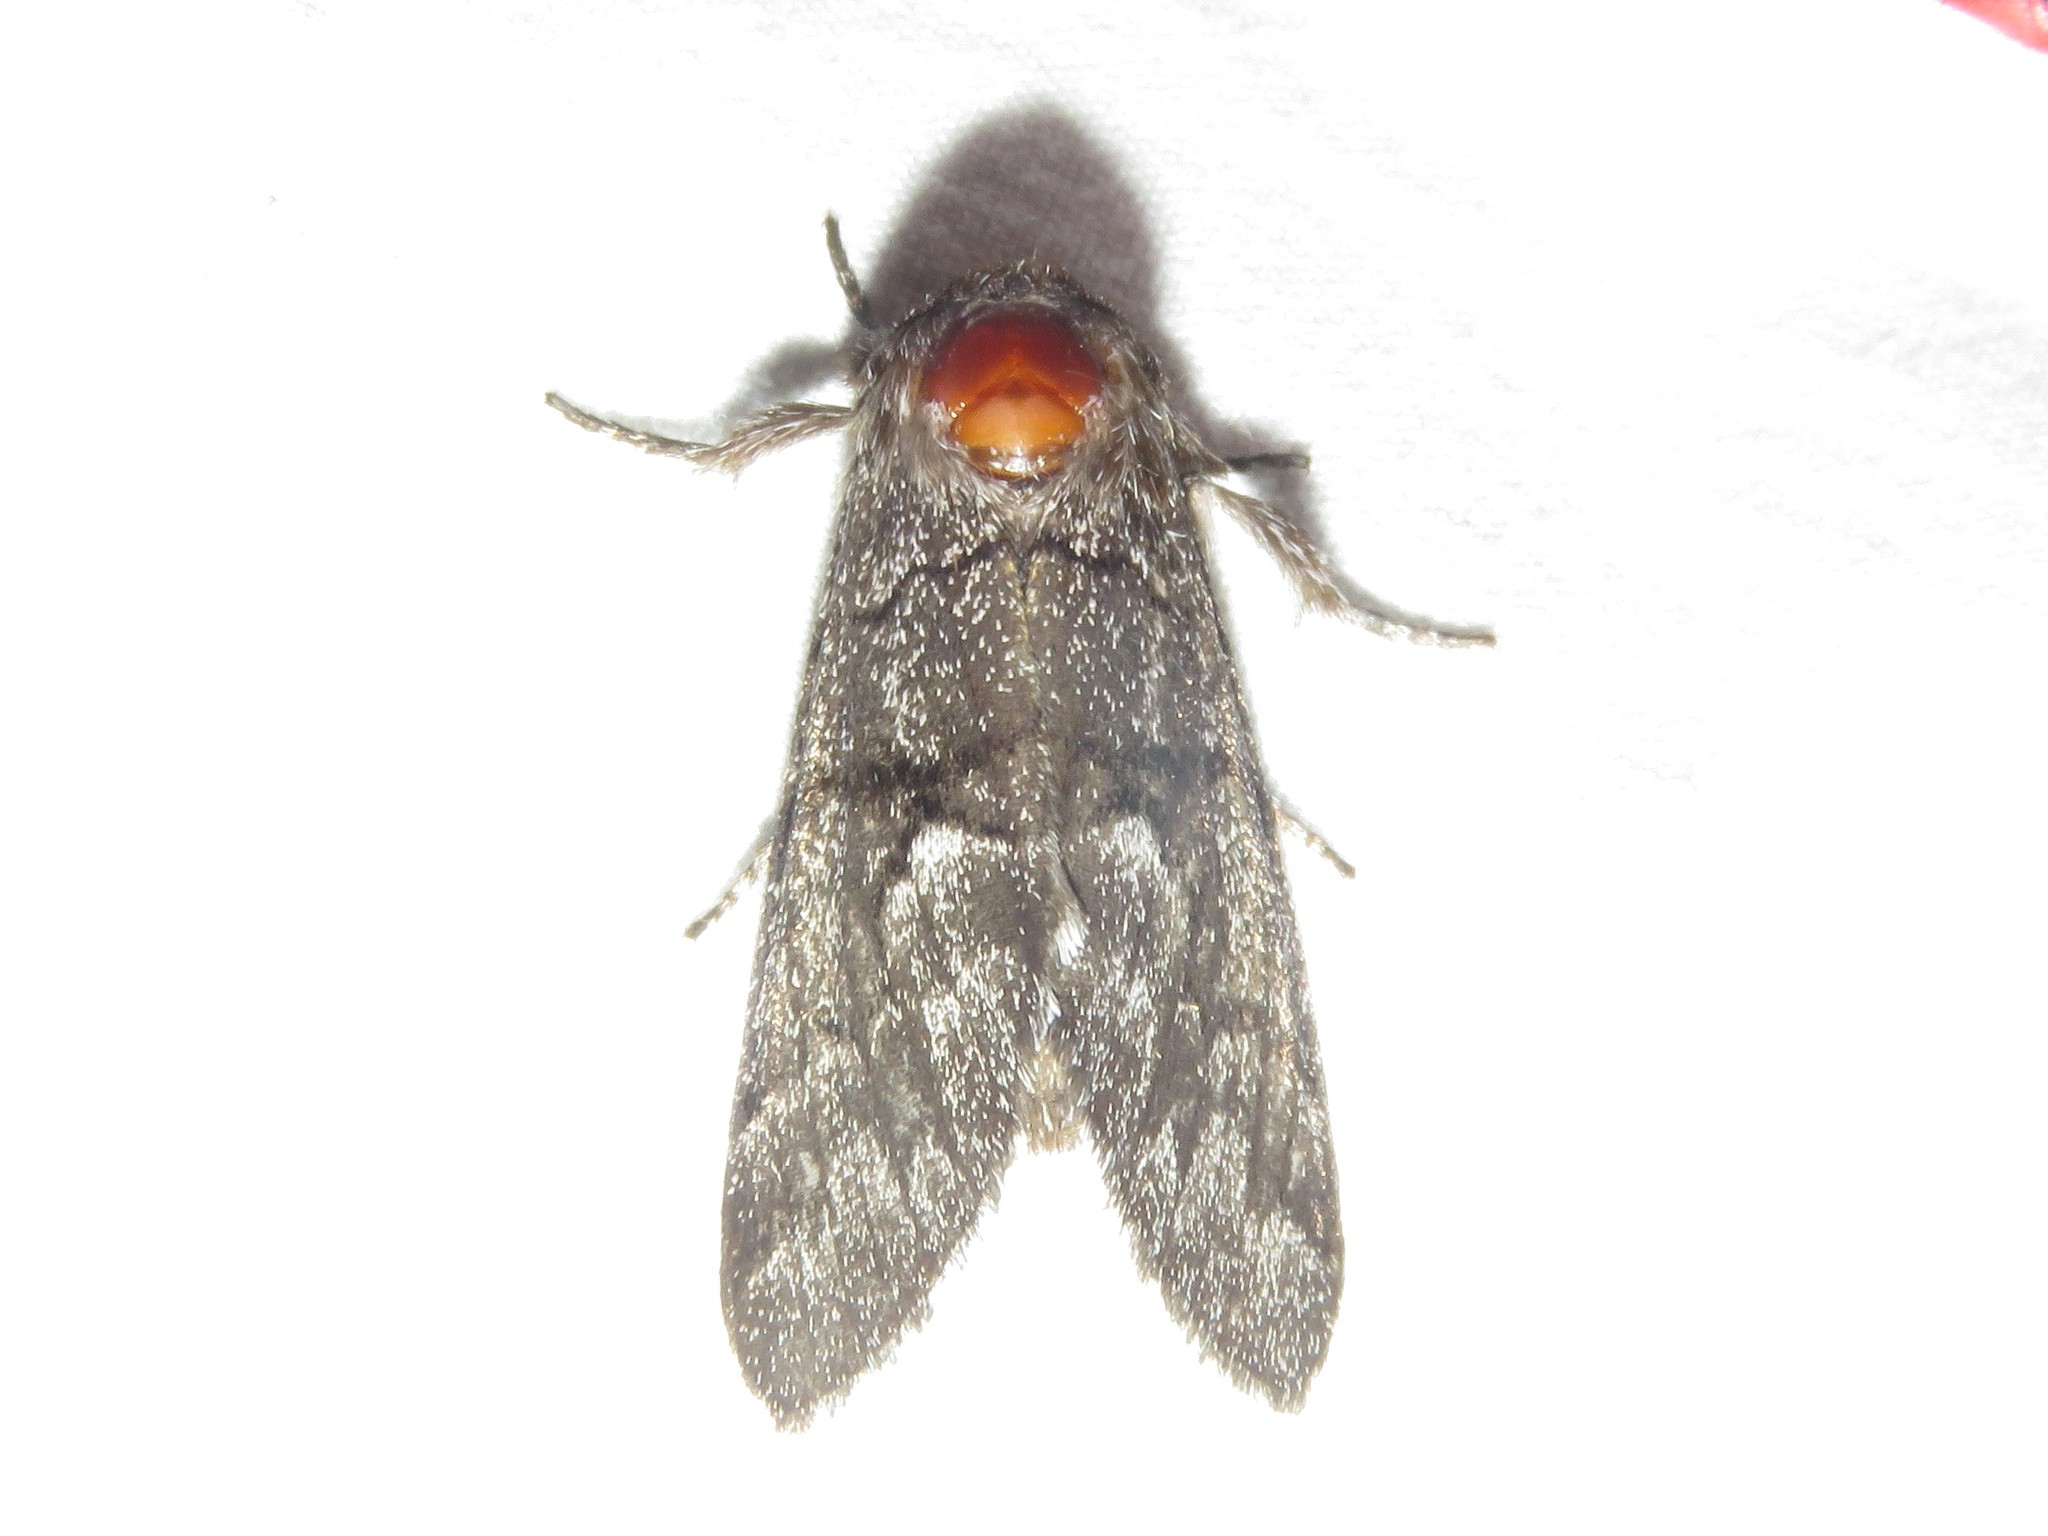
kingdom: Animalia
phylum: Arthropoda
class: Insecta
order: Lepidoptera
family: Noctuidae
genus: Panthea
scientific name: Panthea furcilla
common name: Eastern panthea moth
